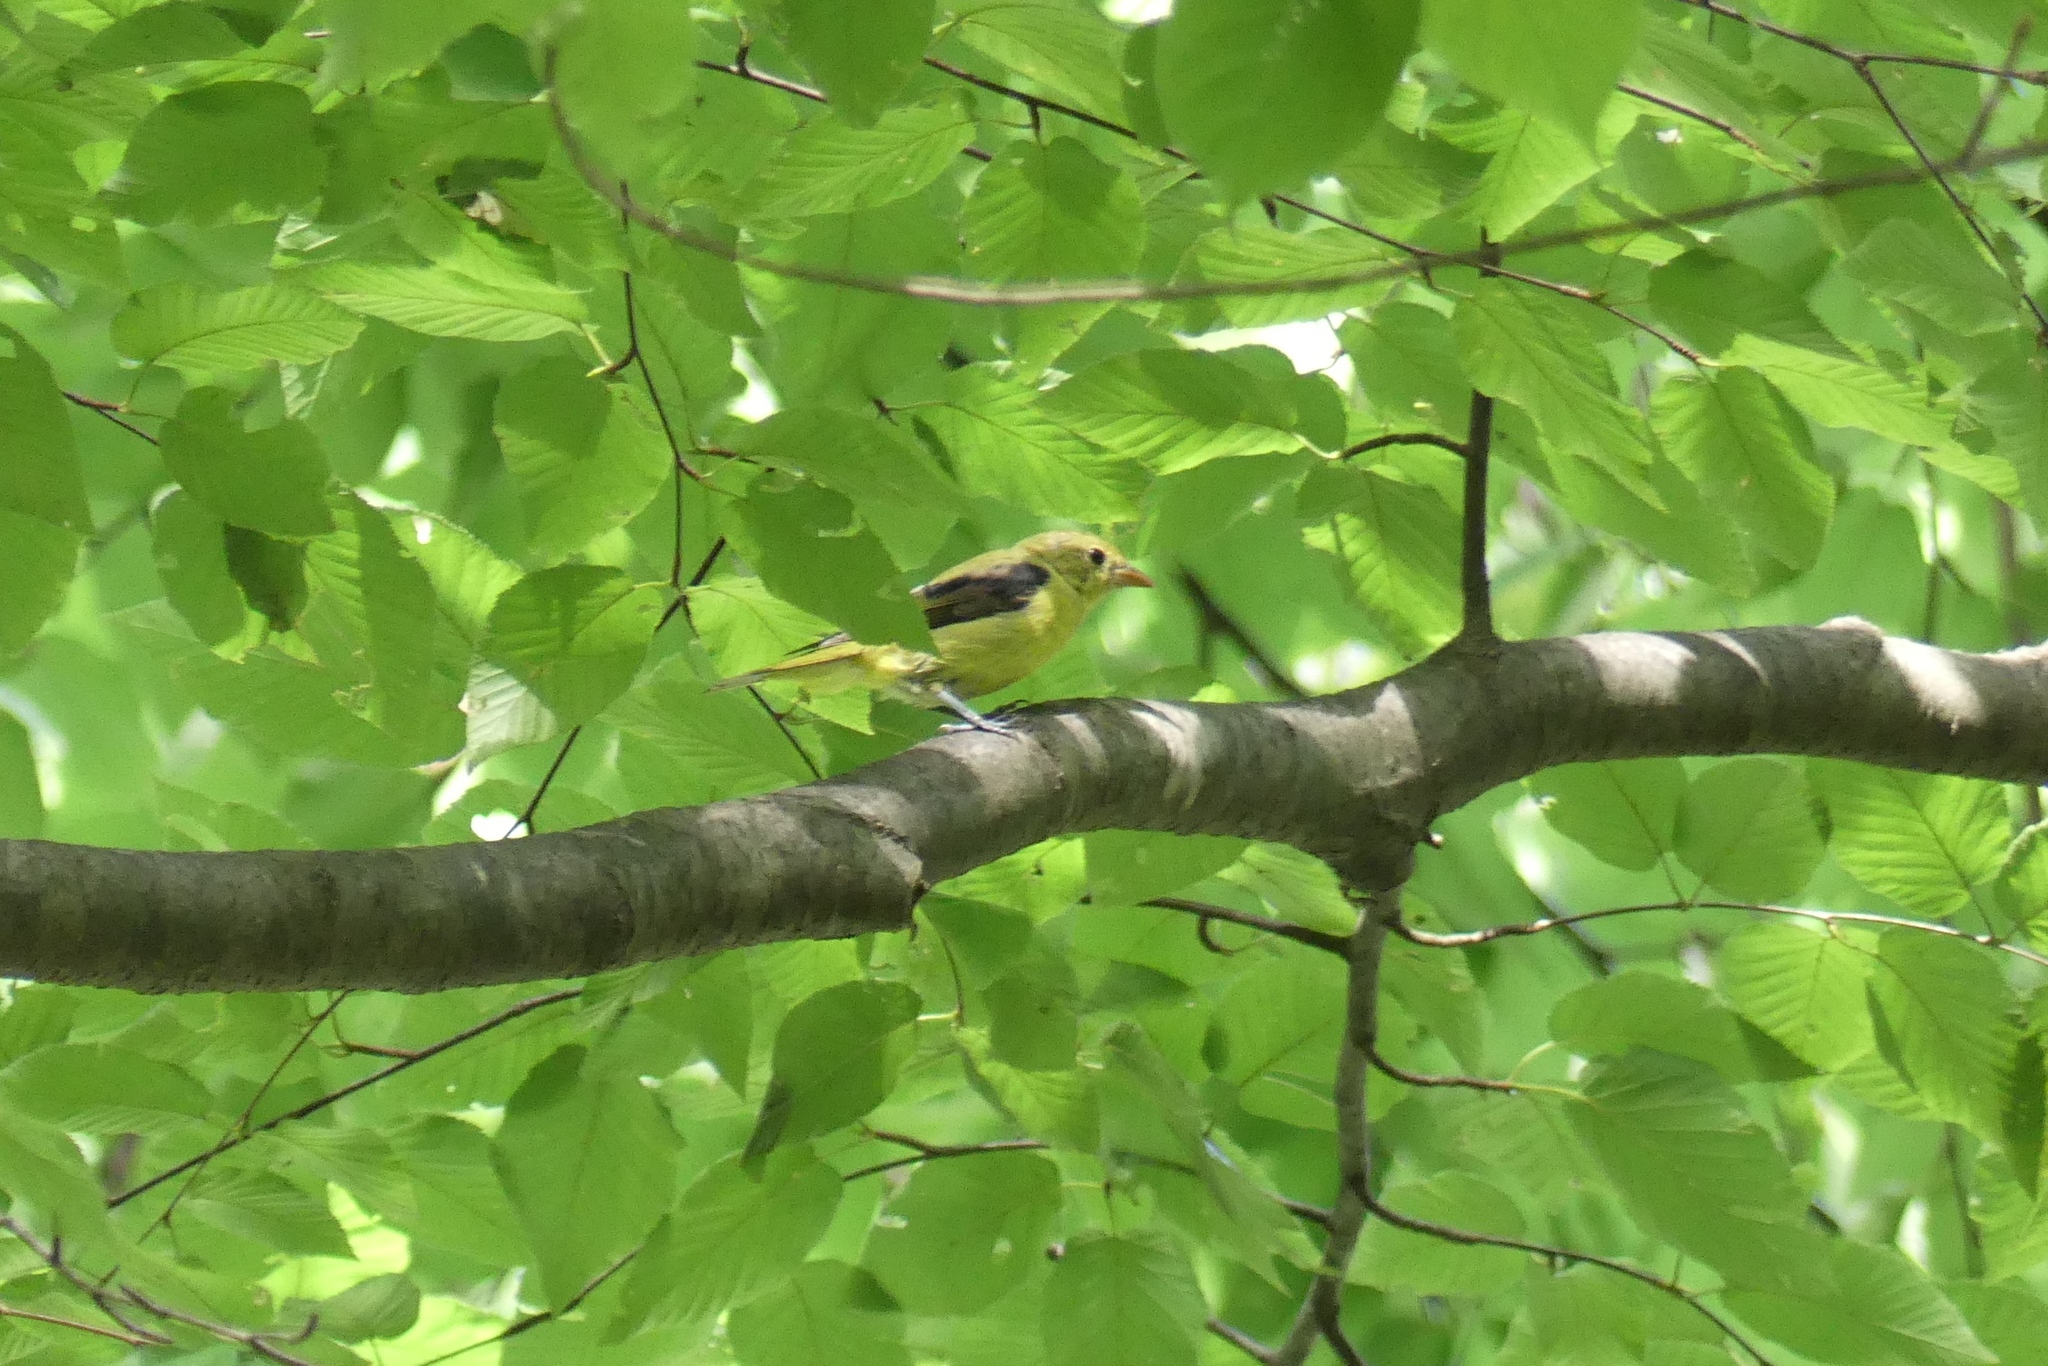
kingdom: Animalia
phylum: Chordata
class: Aves
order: Passeriformes
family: Cardinalidae
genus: Piranga
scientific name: Piranga olivacea
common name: Scarlet tanager
